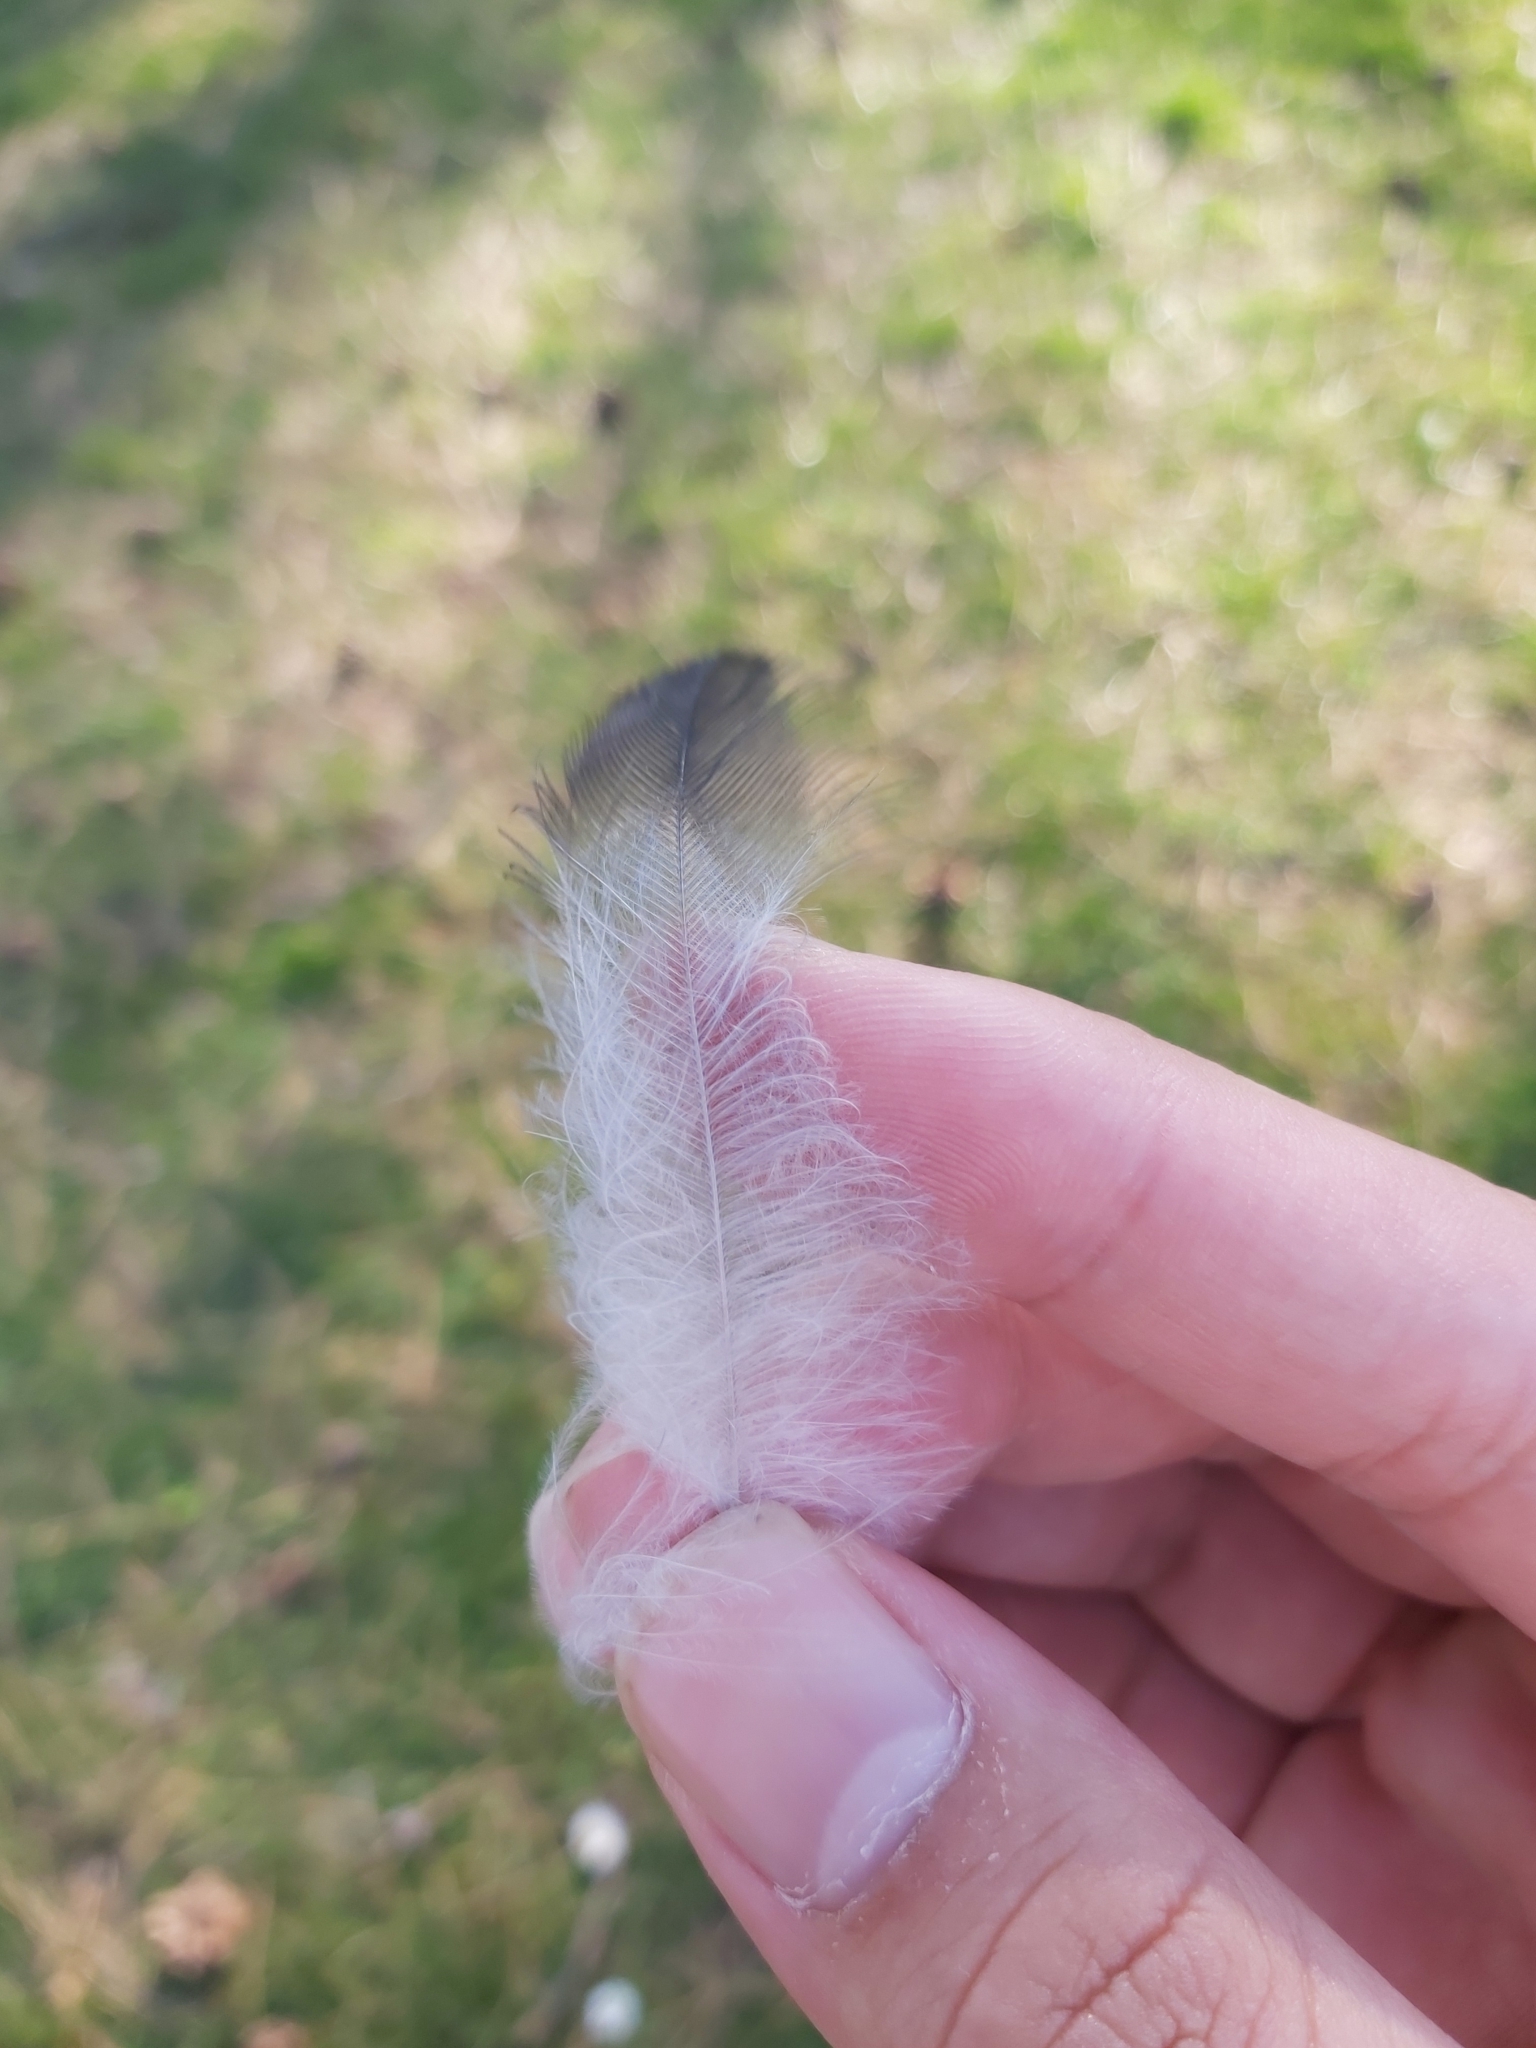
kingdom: Animalia
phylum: Chordata
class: Aves
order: Passeriformes
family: Corvidae
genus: Corvus
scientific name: Corvus cornix
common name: Hooded crow
